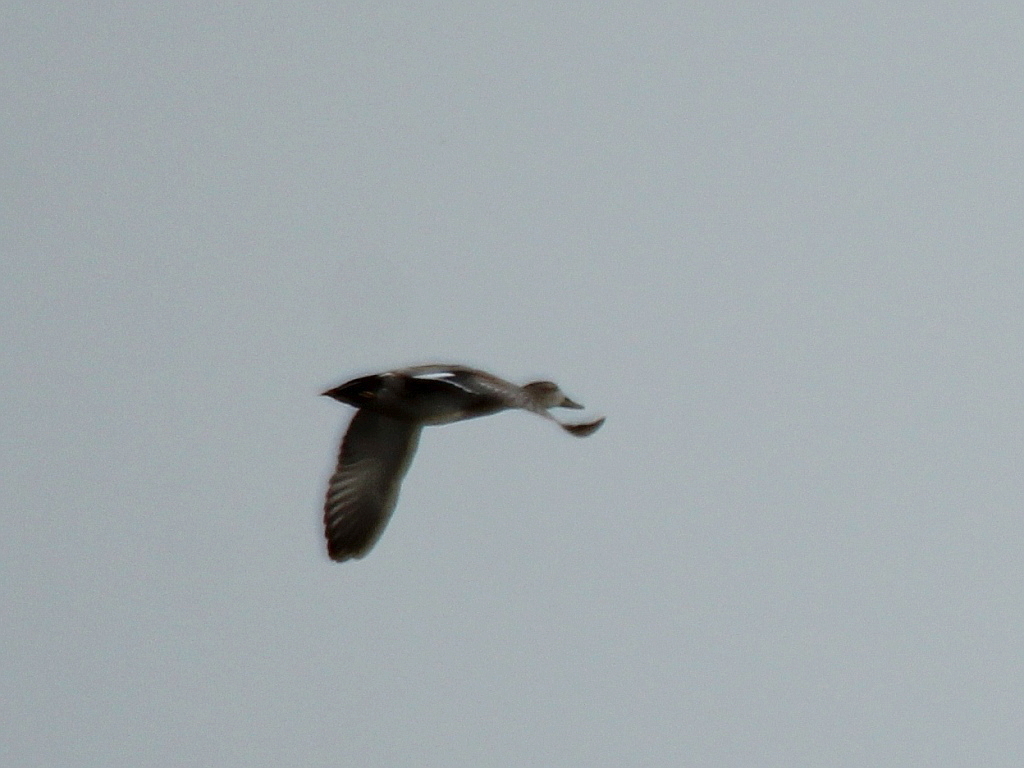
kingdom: Animalia
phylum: Chordata
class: Aves
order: Anseriformes
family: Anatidae
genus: Mareca
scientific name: Mareca strepera
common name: Gadwall
